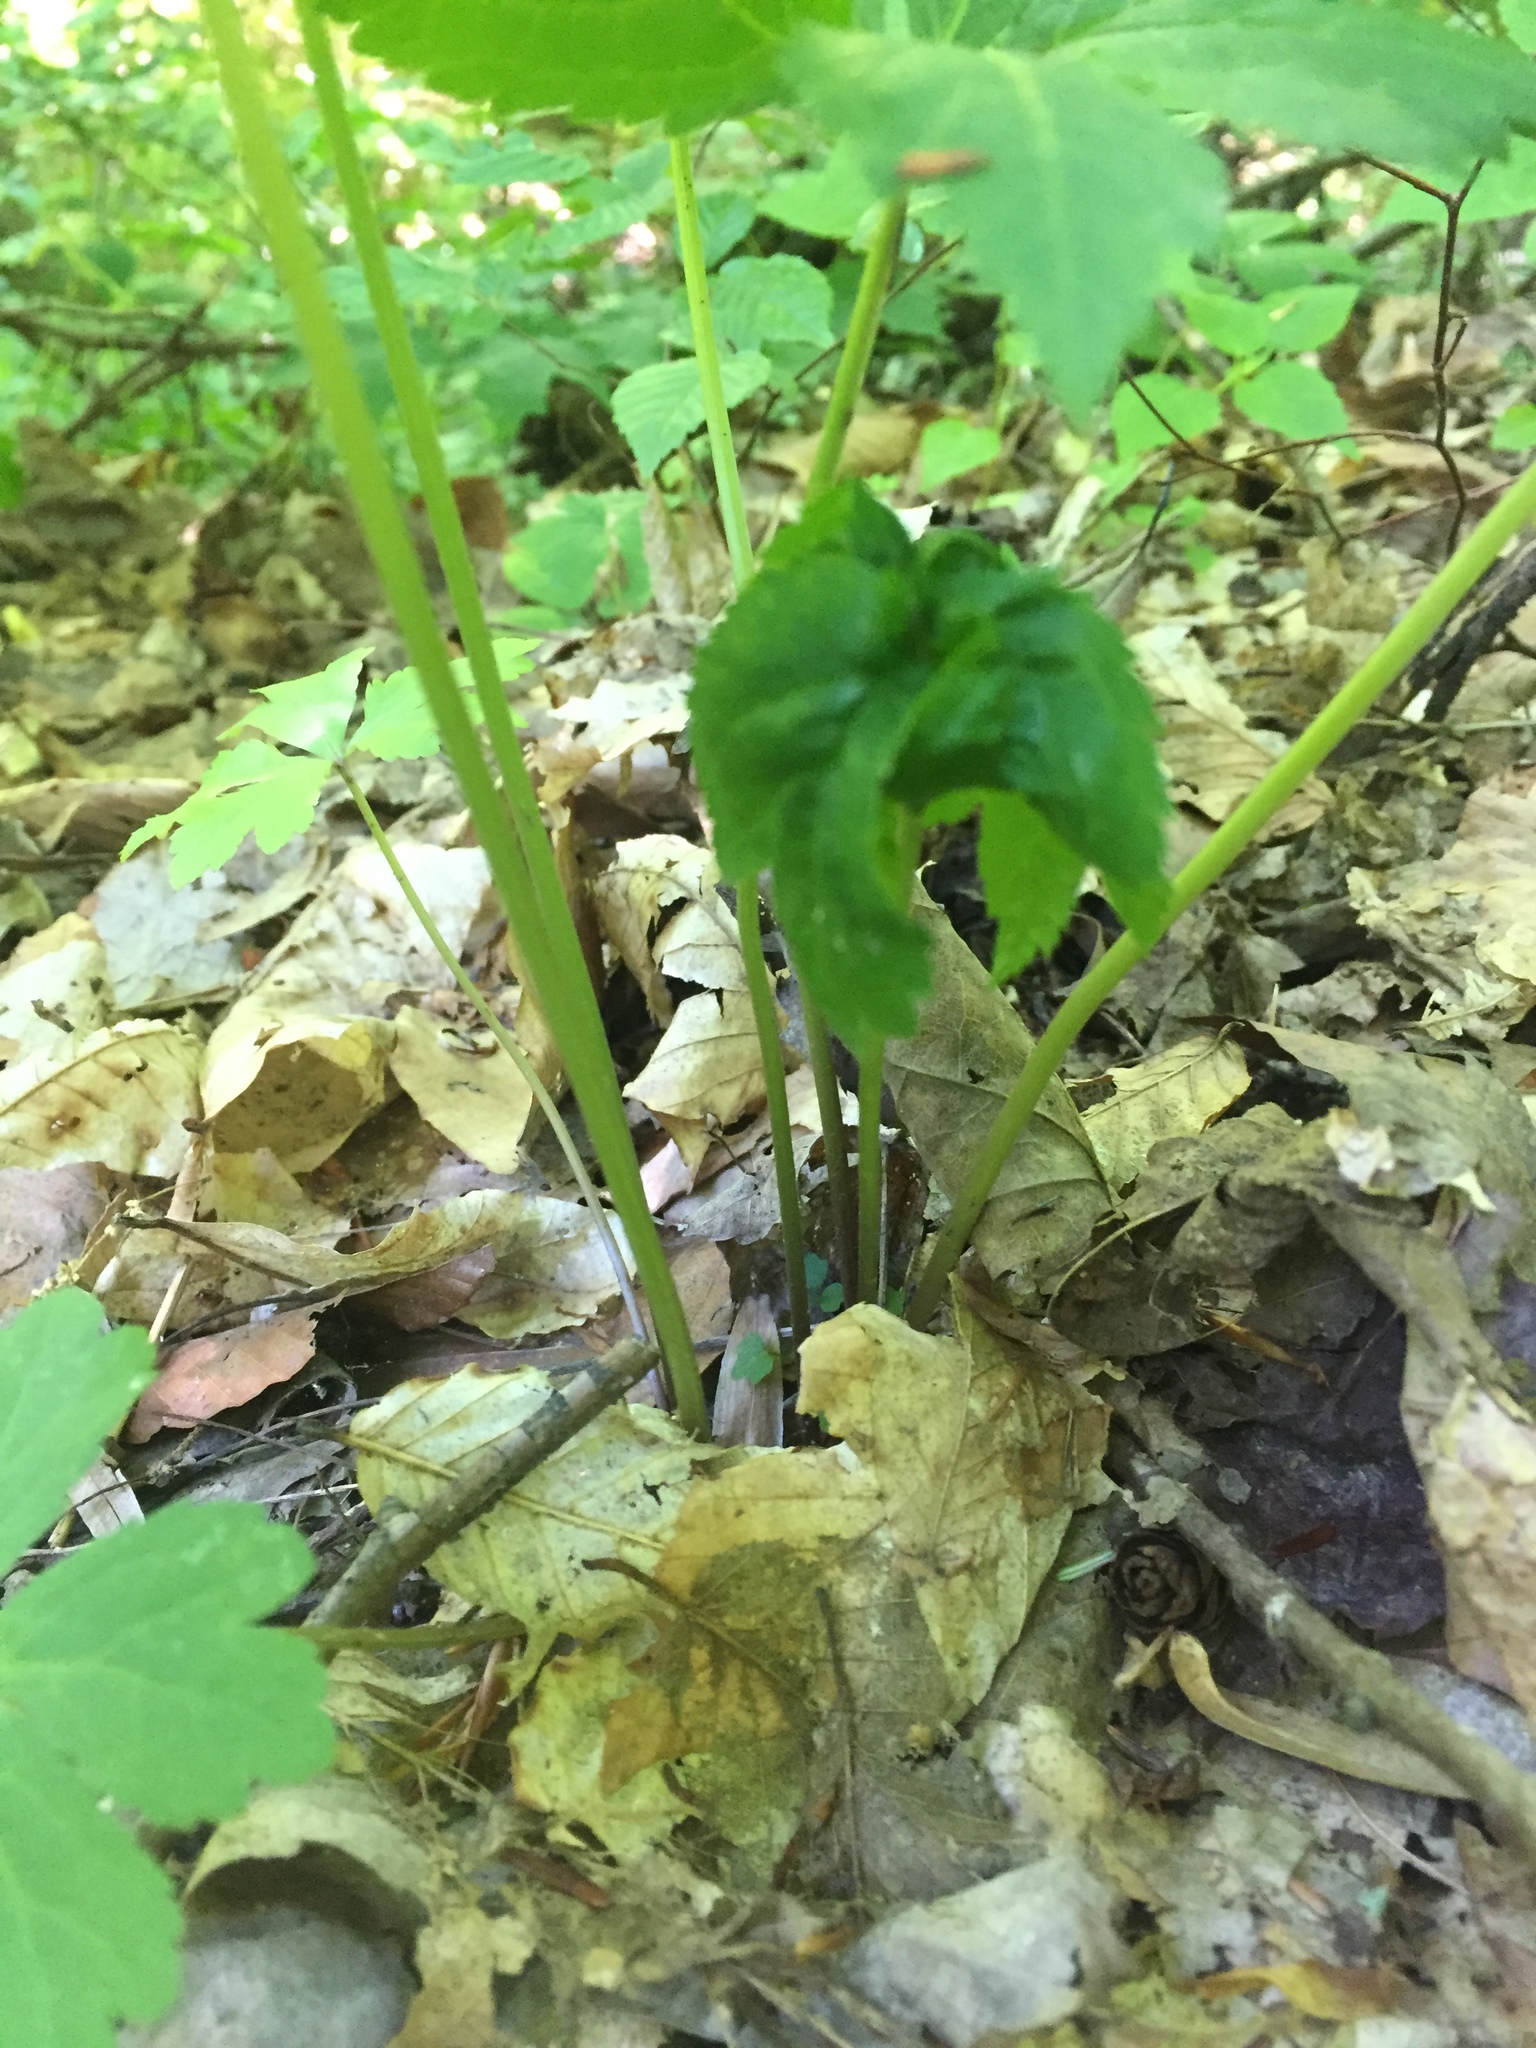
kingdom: Plantae
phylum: Tracheophyta
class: Magnoliopsida
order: Apiales
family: Apiaceae
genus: Sanicula
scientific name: Sanicula canadensis
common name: Canada sanicle
